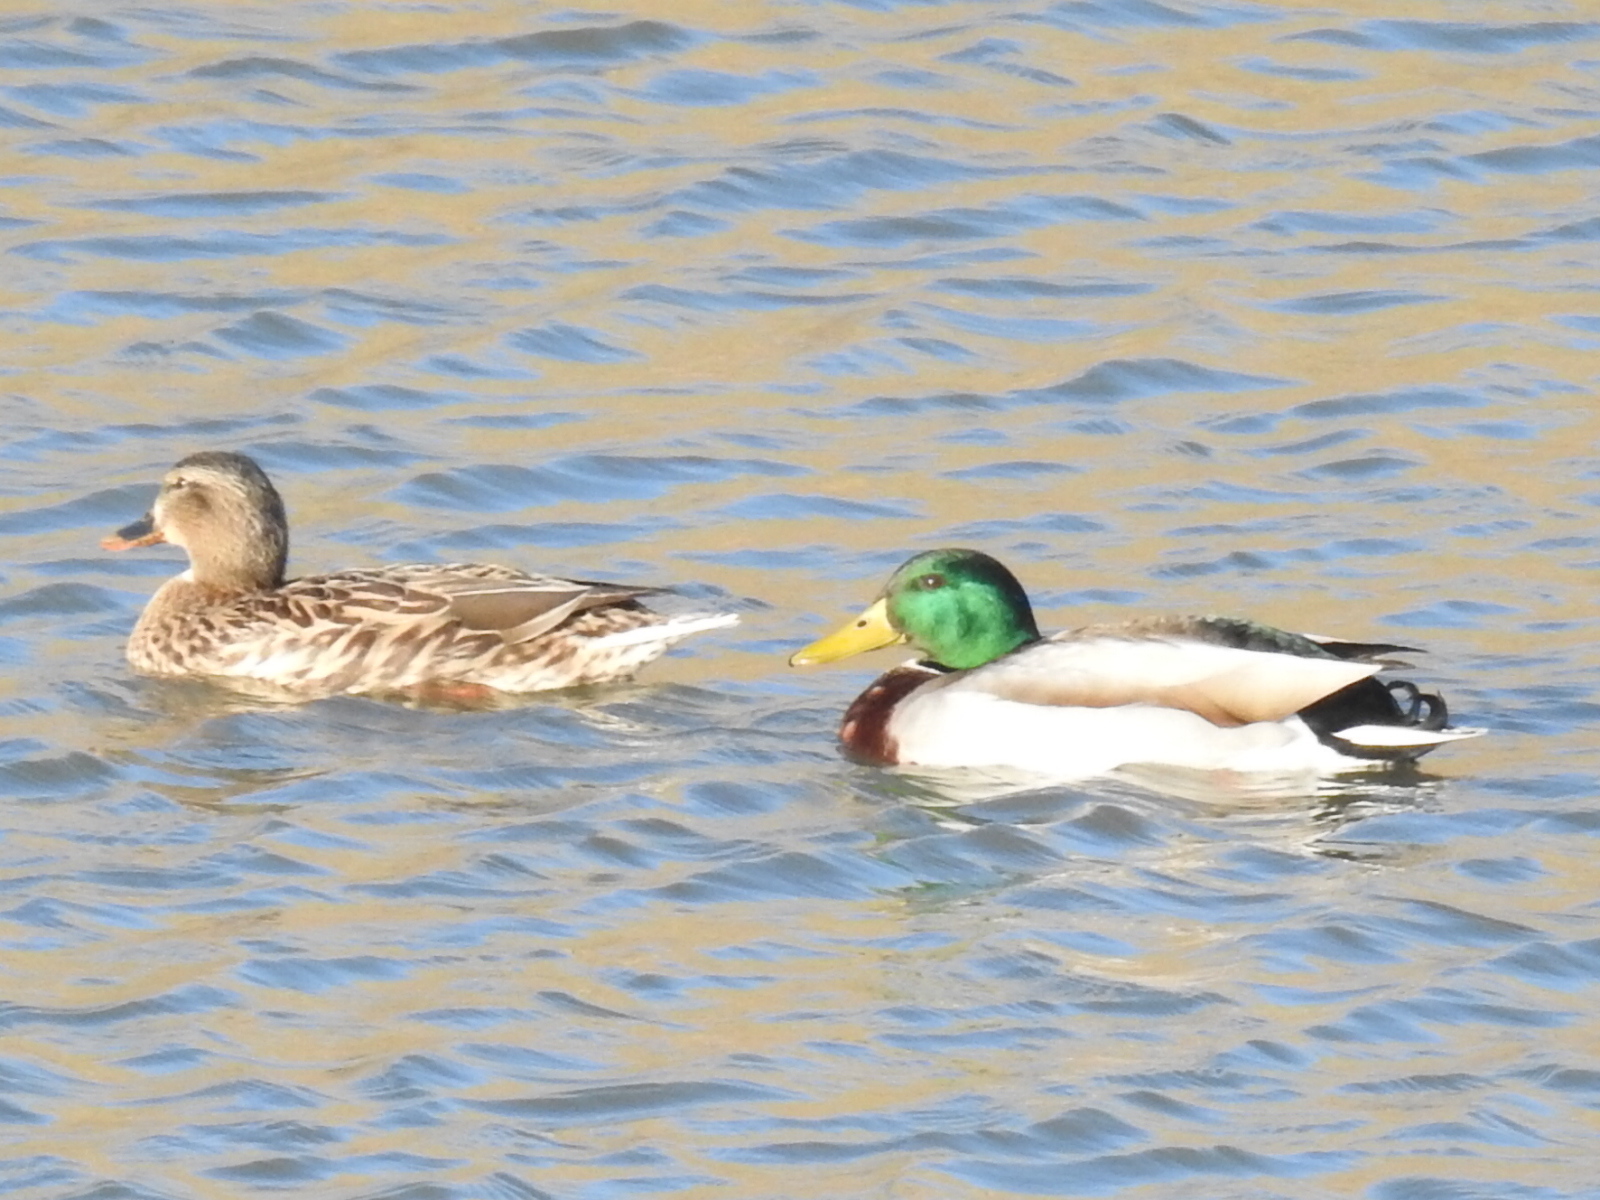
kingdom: Animalia
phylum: Chordata
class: Aves
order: Anseriformes
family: Anatidae
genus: Anas
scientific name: Anas platyrhynchos
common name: Mallard
